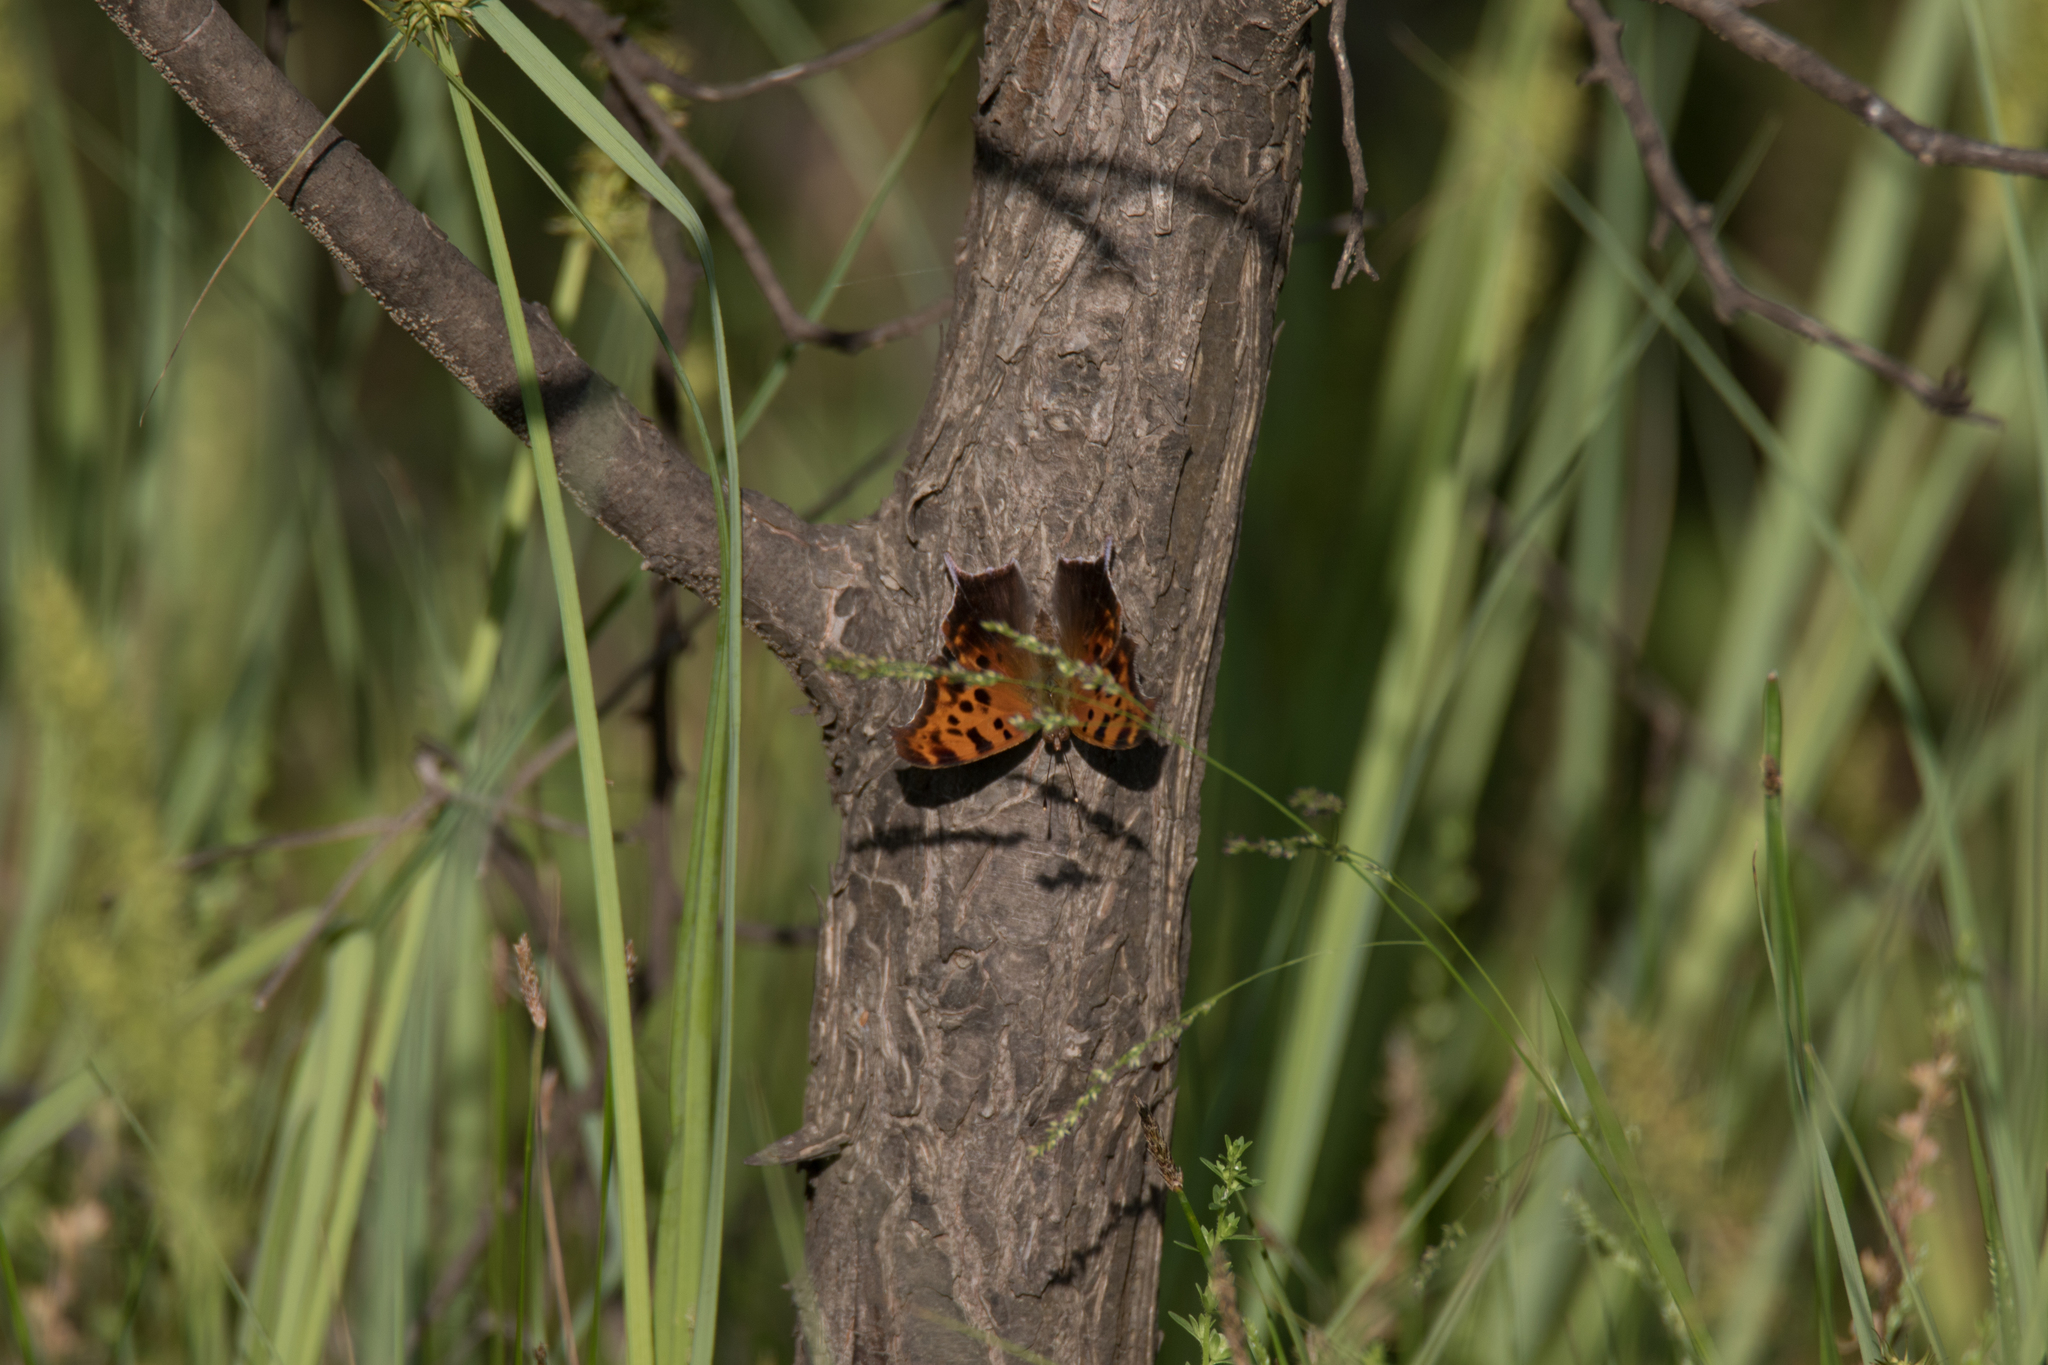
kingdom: Animalia
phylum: Arthropoda
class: Insecta
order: Lepidoptera
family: Nymphalidae
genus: Polygonia
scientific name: Polygonia interrogationis
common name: Question mark
